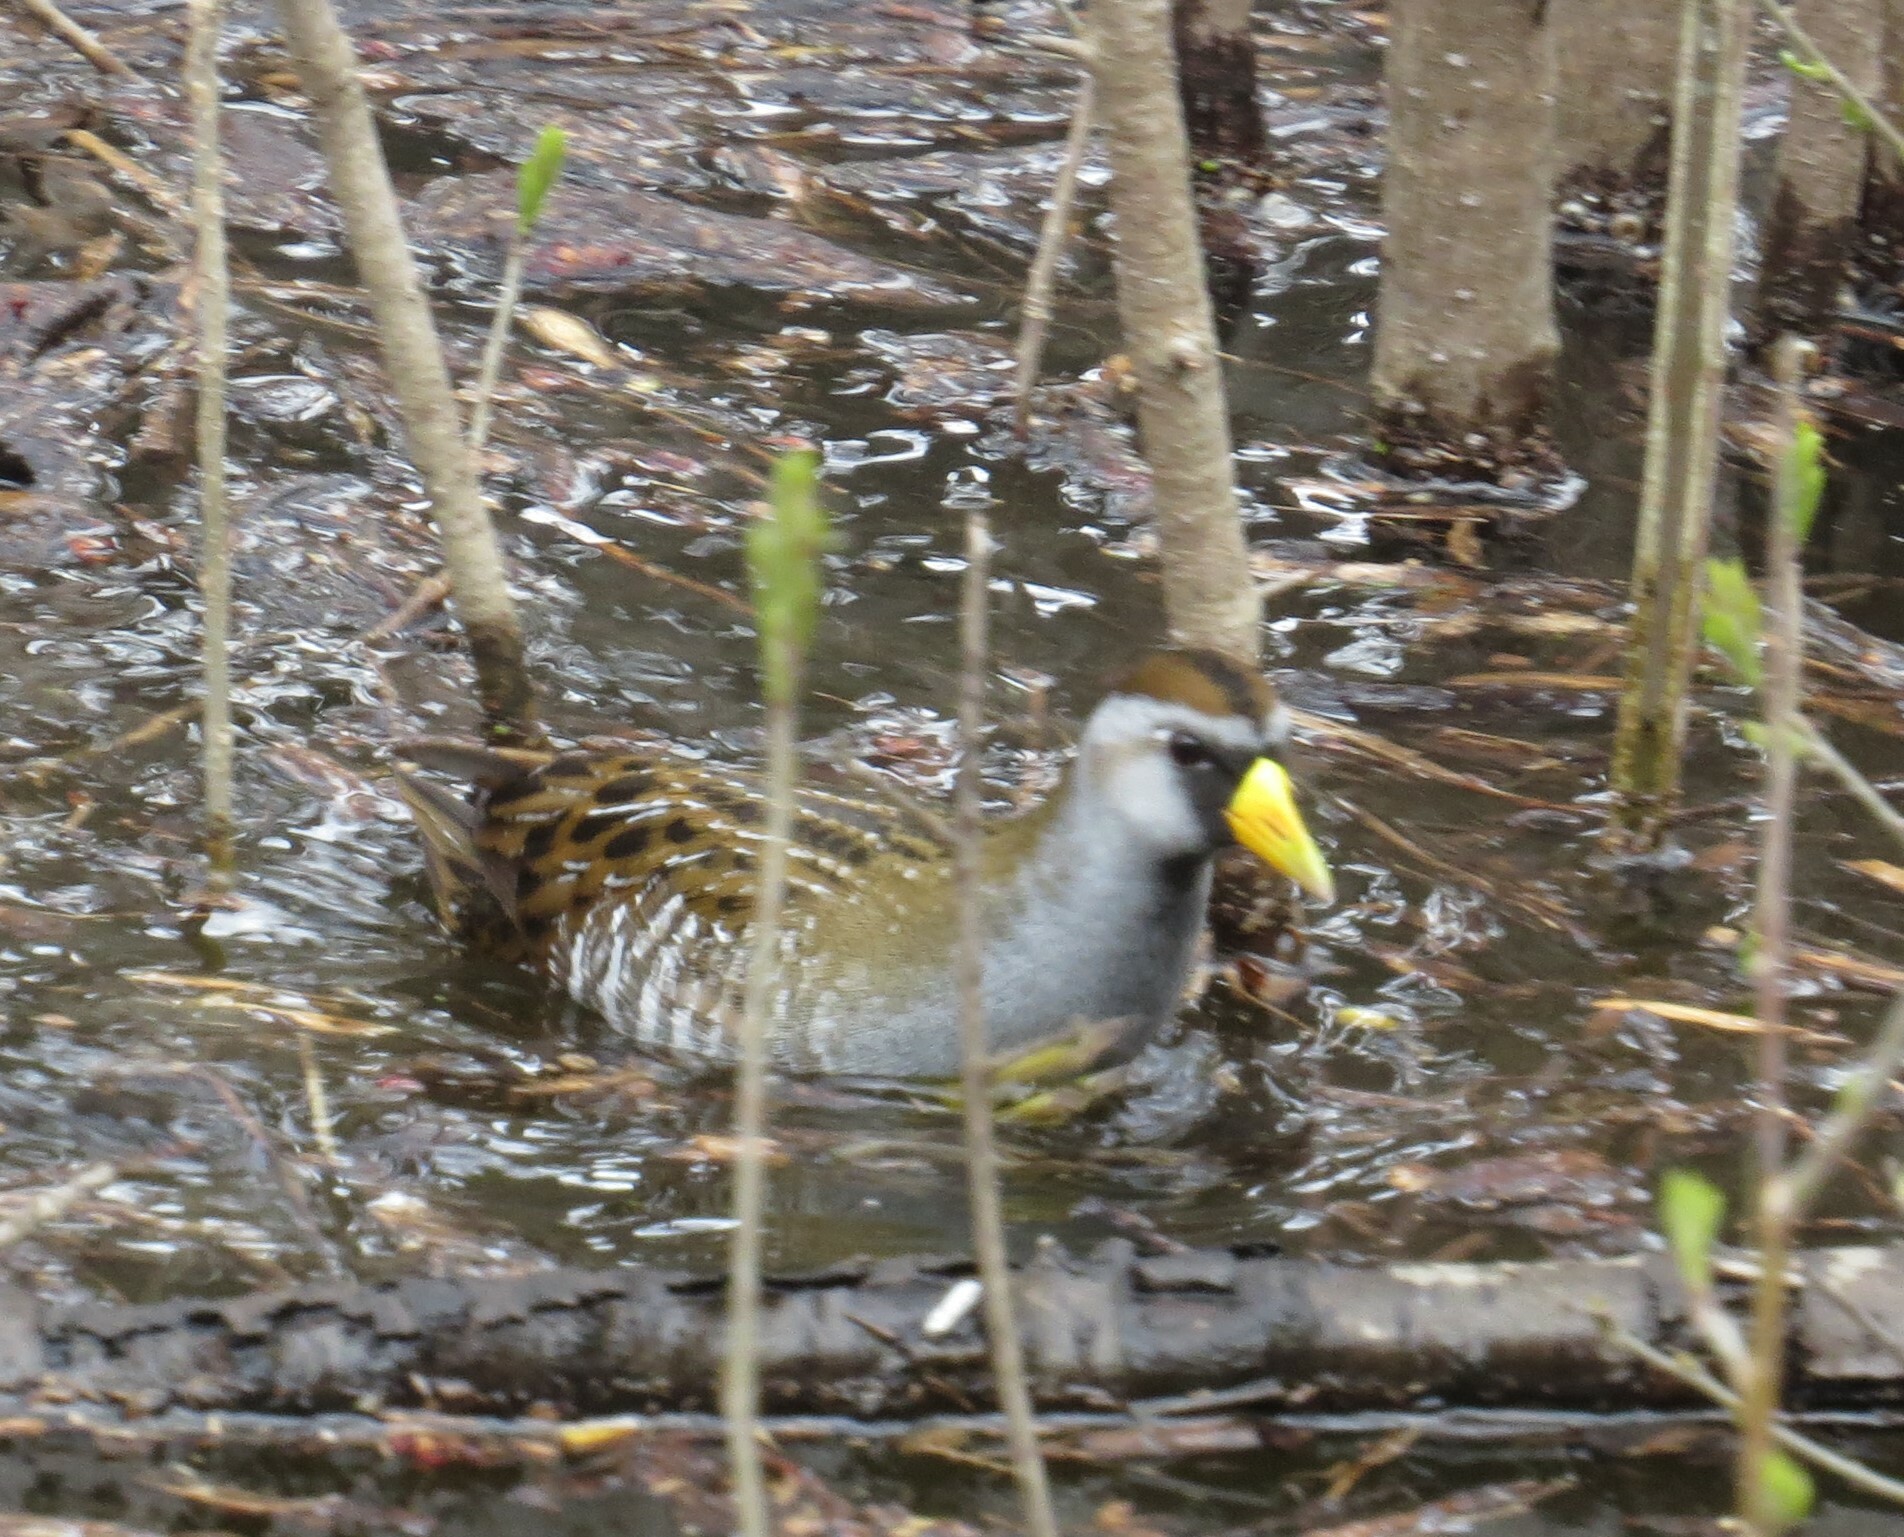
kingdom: Animalia
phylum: Chordata
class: Aves
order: Gruiformes
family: Rallidae
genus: Porzana
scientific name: Porzana carolina
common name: Sora
